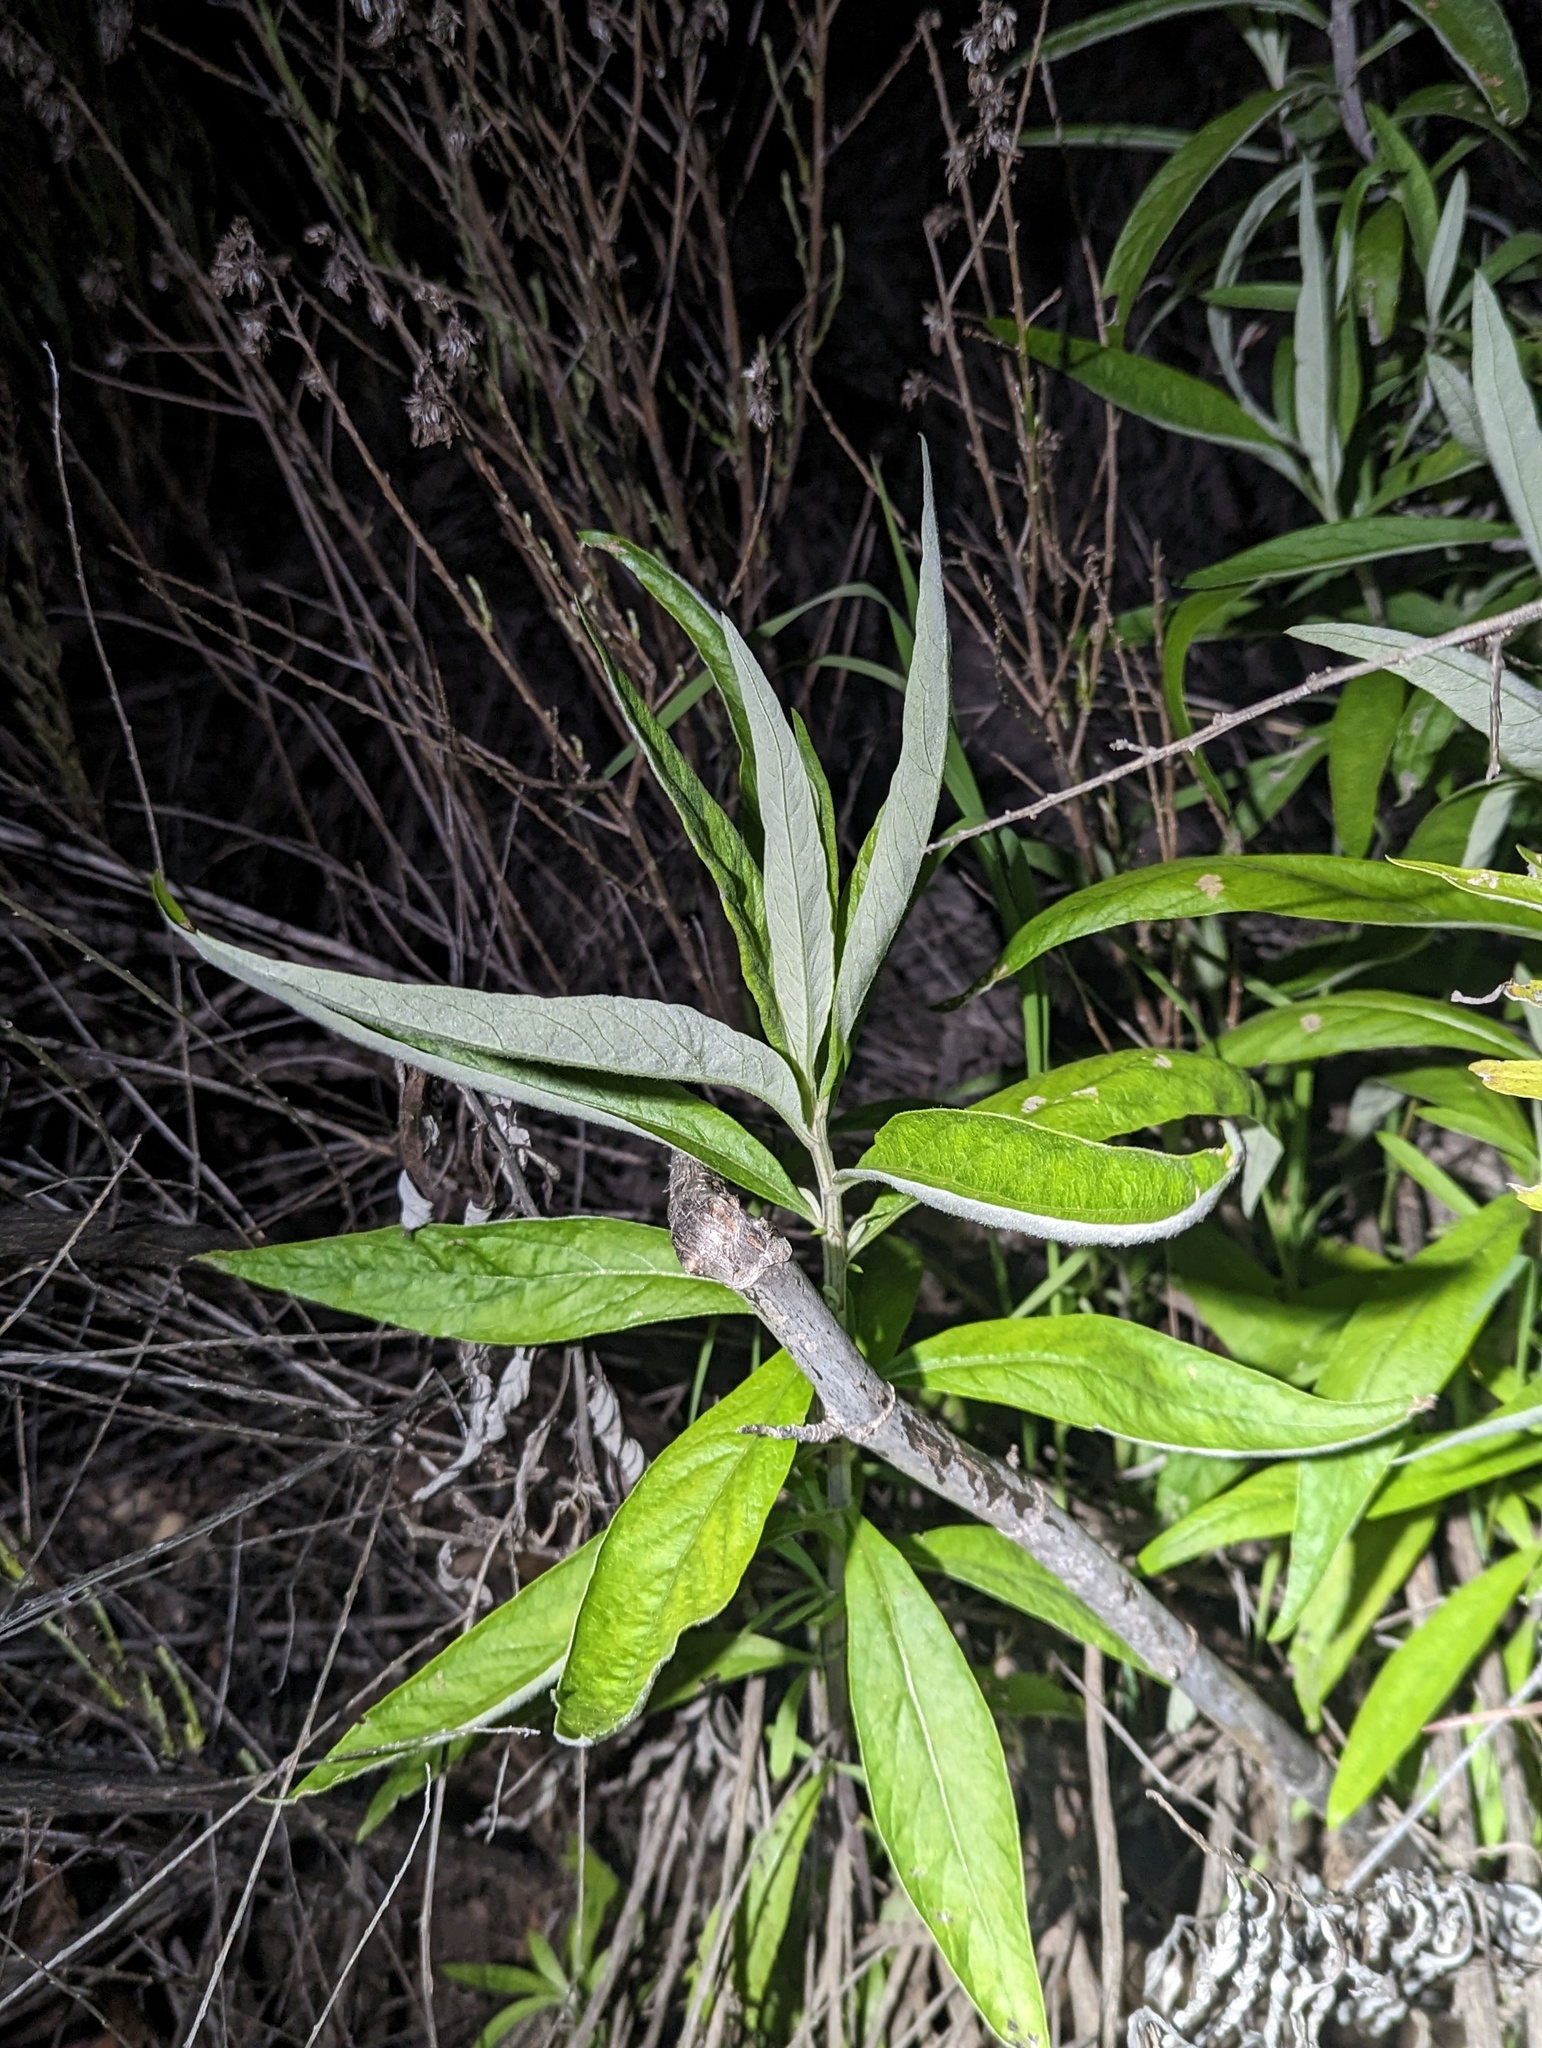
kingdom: Plantae
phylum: Tracheophyta
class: Magnoliopsida
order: Asterales
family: Asteraceae
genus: Artemisia
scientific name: Artemisia douglasiana
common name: Northwest mugwort
